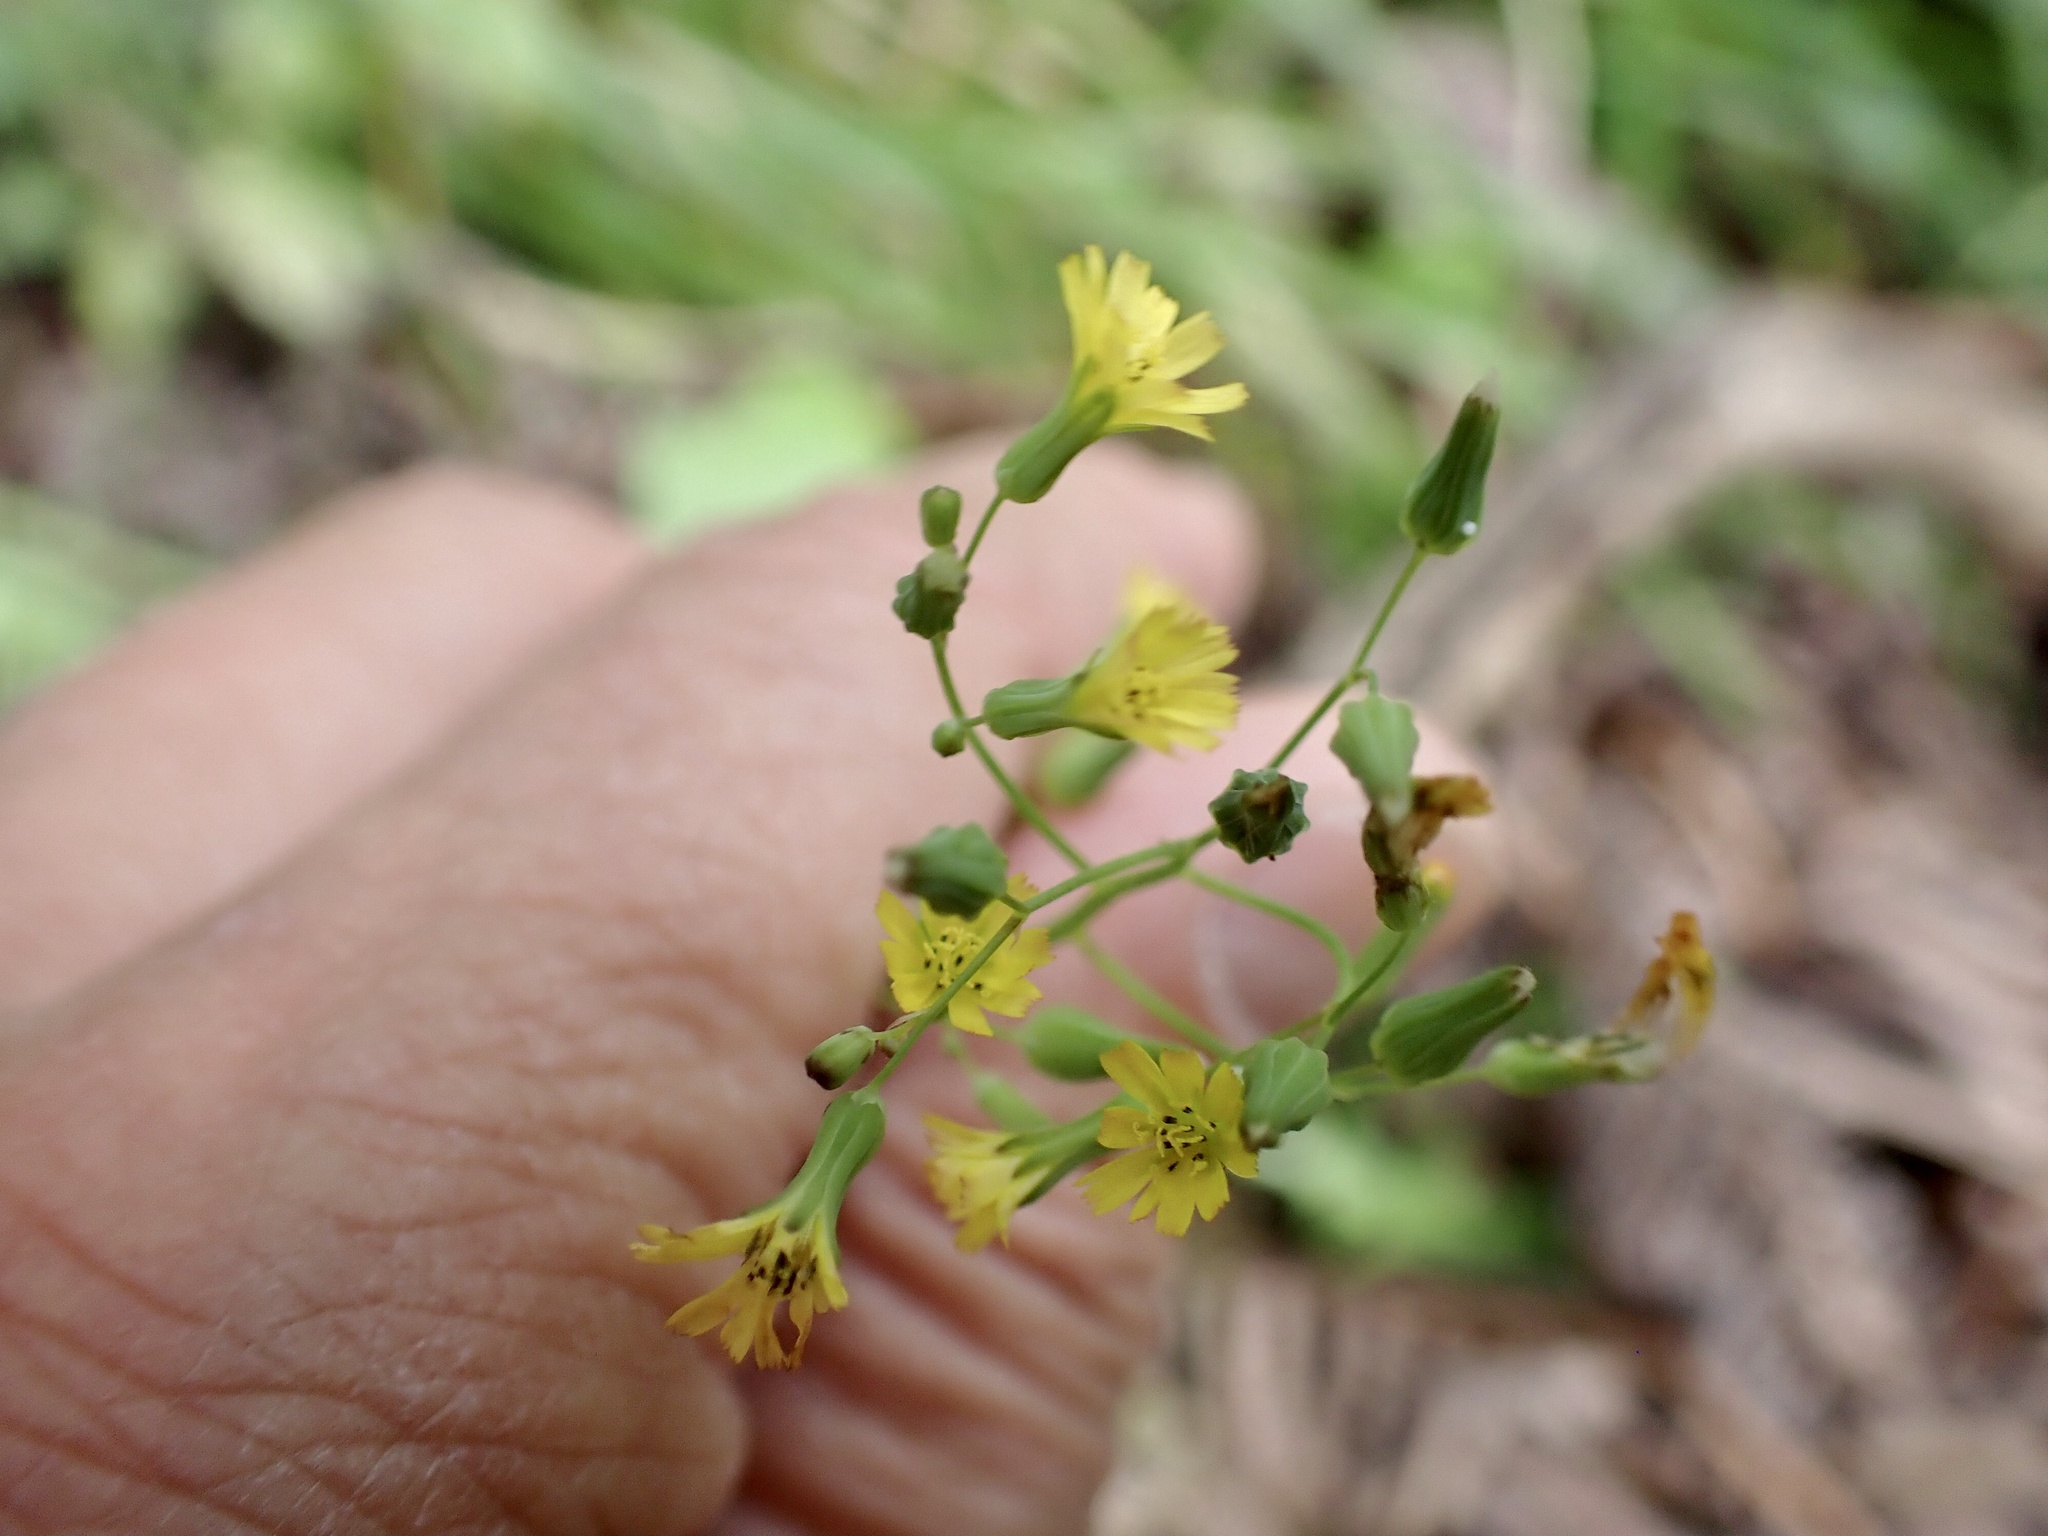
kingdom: Plantae
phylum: Tracheophyta
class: Magnoliopsida
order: Asterales
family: Asteraceae
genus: Youngia
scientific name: Youngia japonica
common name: Oriental false hawksbeard
